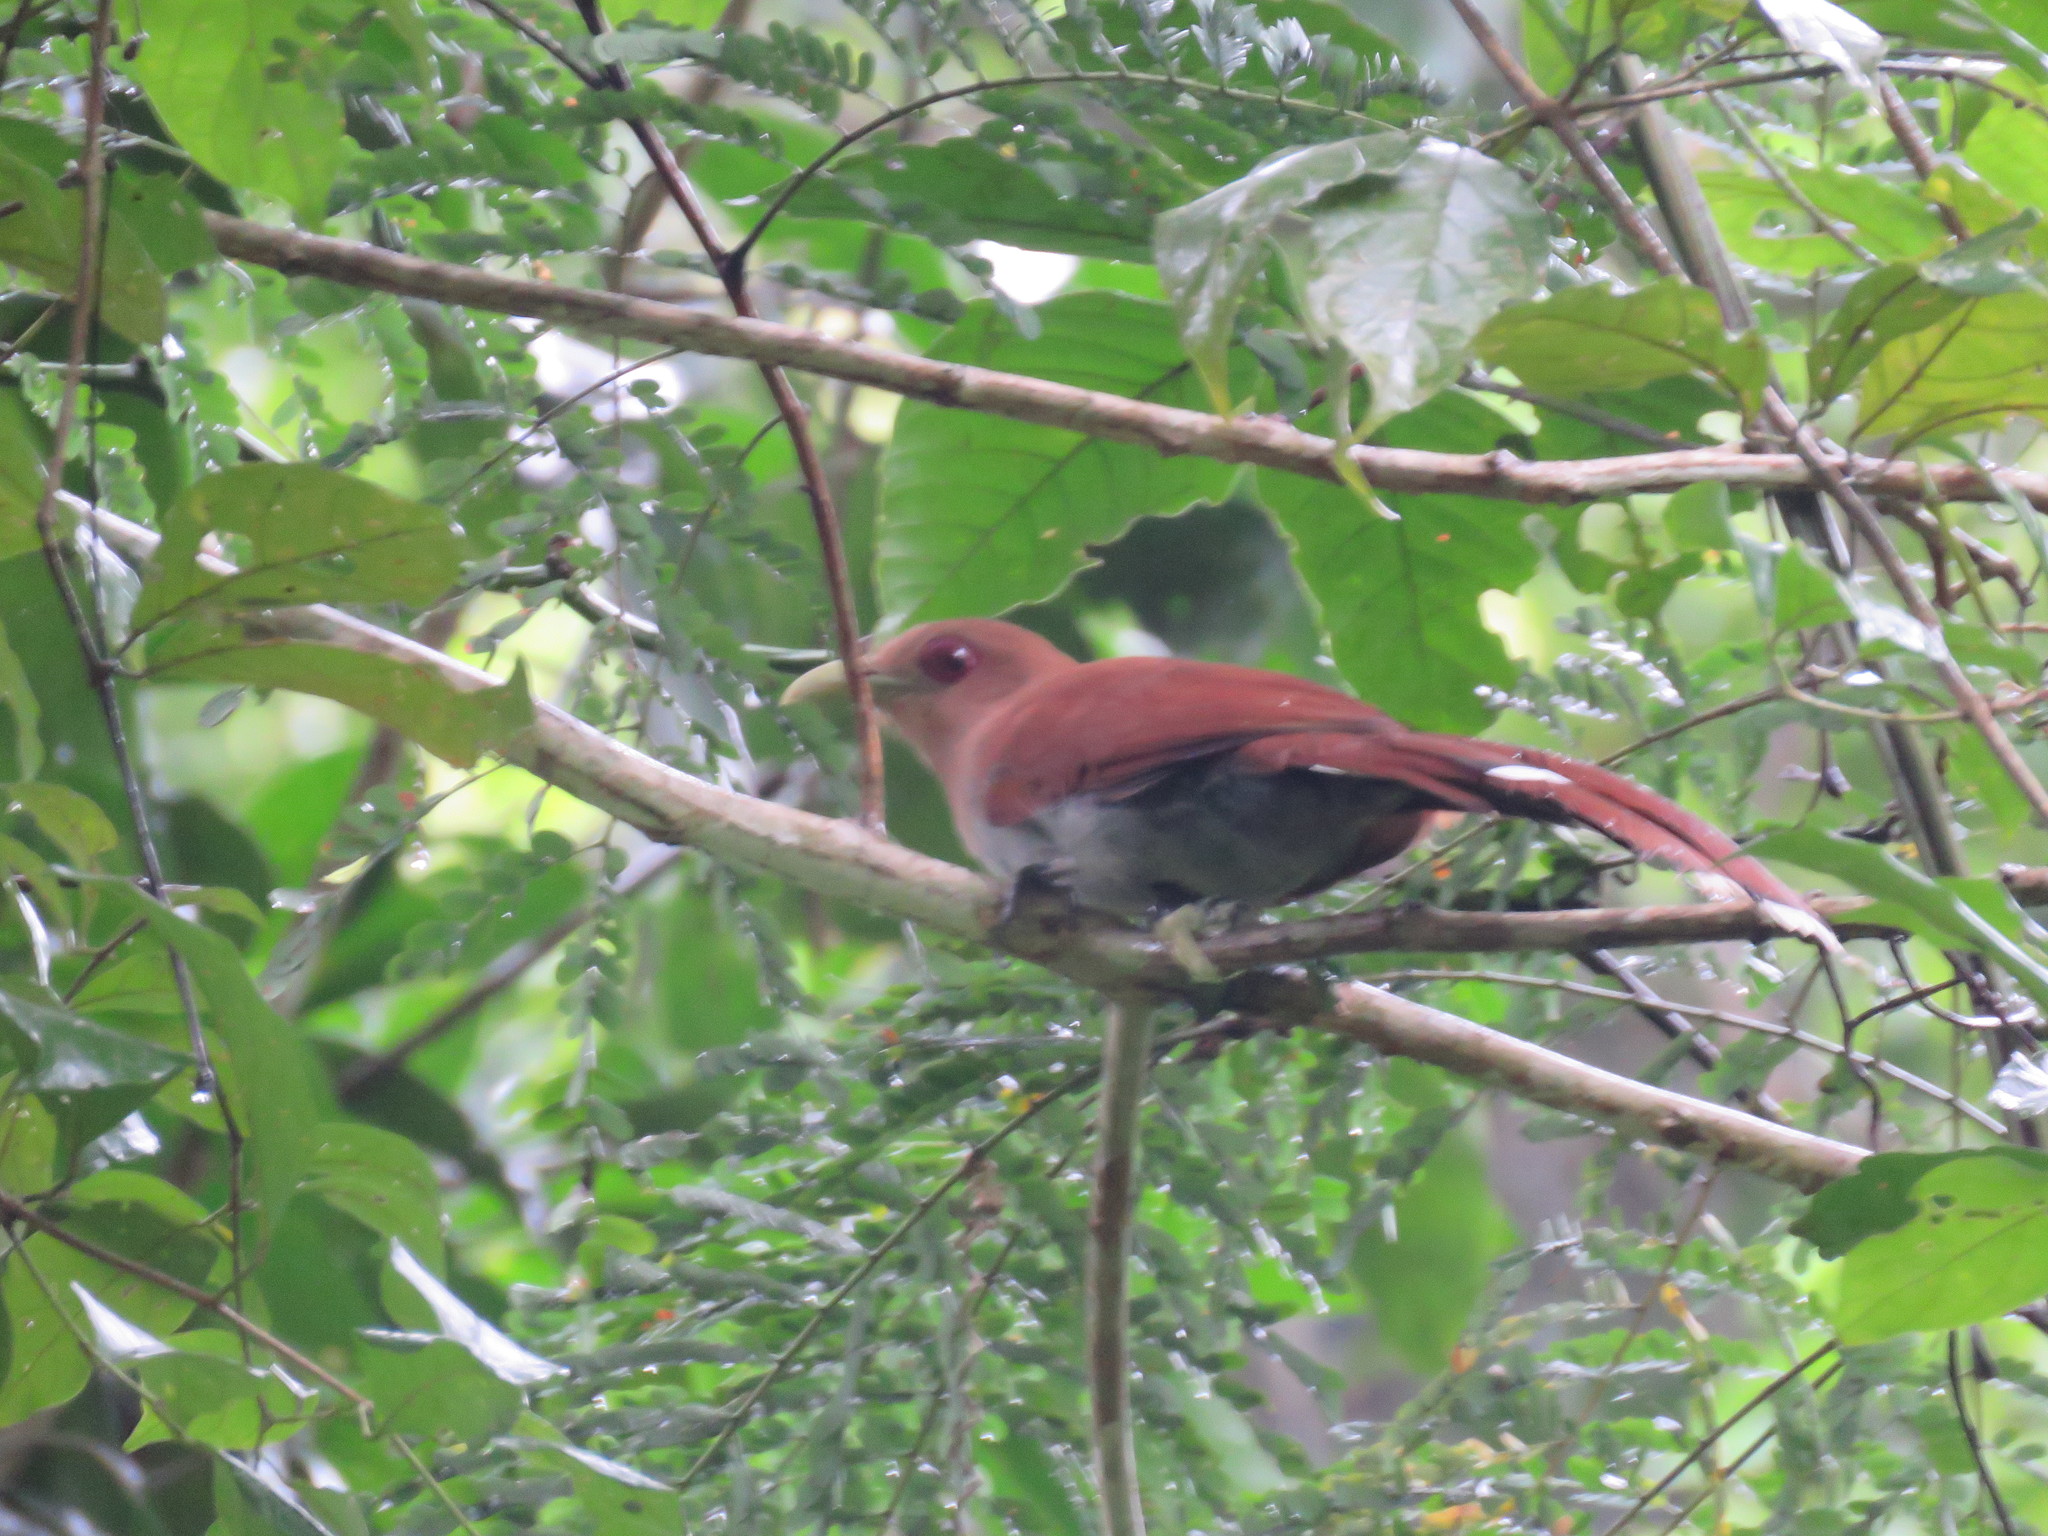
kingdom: Animalia
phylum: Chordata
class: Aves
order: Cuculiformes
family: Cuculidae
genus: Piaya
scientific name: Piaya cayana
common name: Squirrel cuckoo
